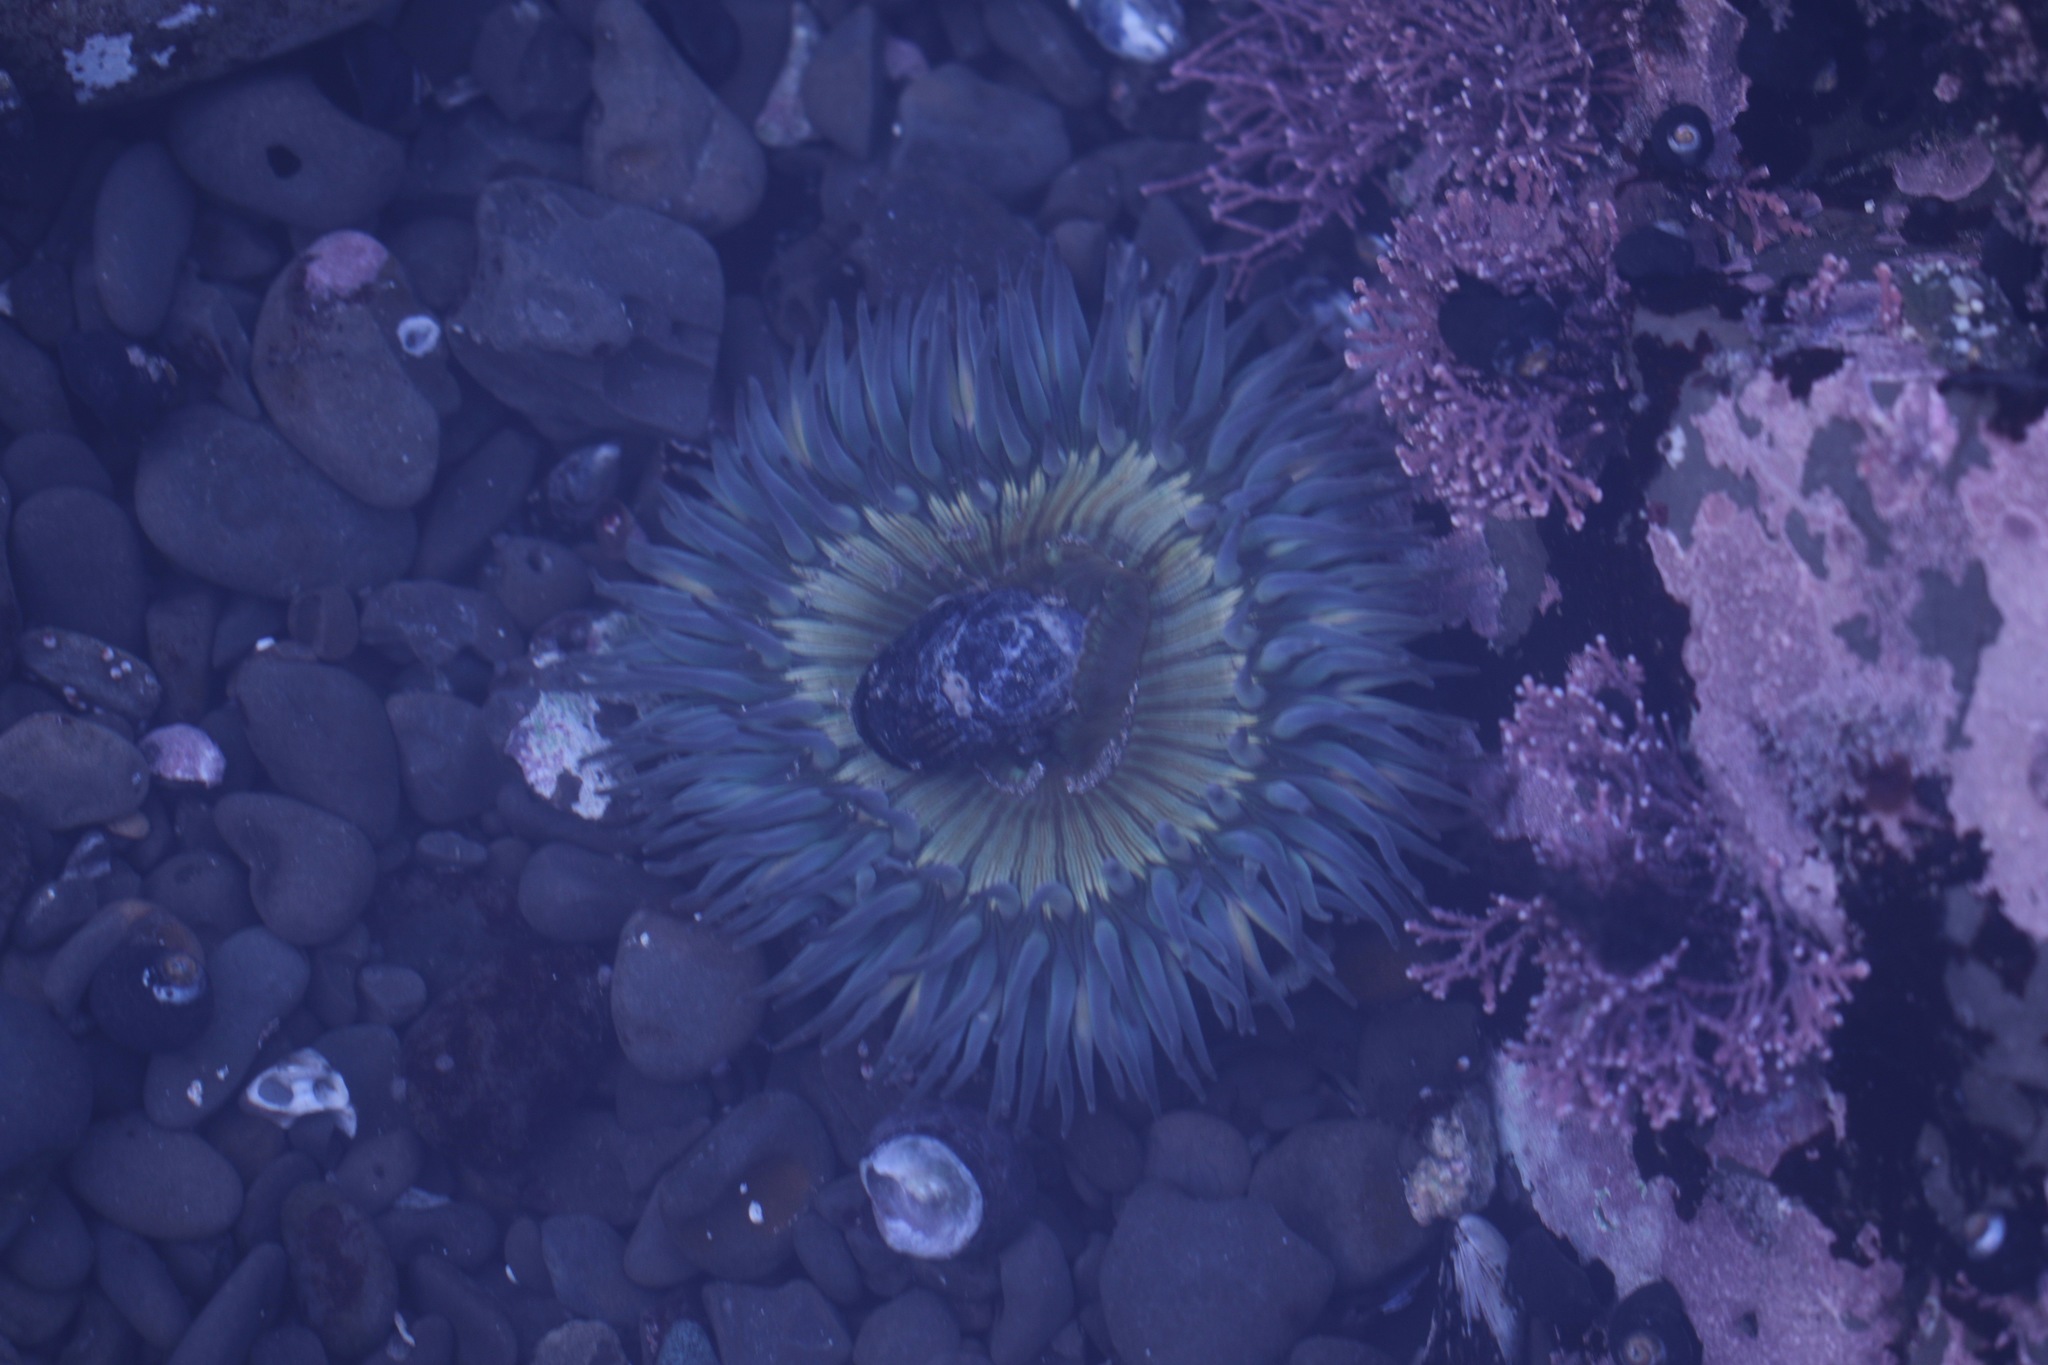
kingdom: Animalia
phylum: Cnidaria
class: Anthozoa
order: Actiniaria
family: Actiniidae
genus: Anthopleura
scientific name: Anthopleura sola
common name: Sun anemone
